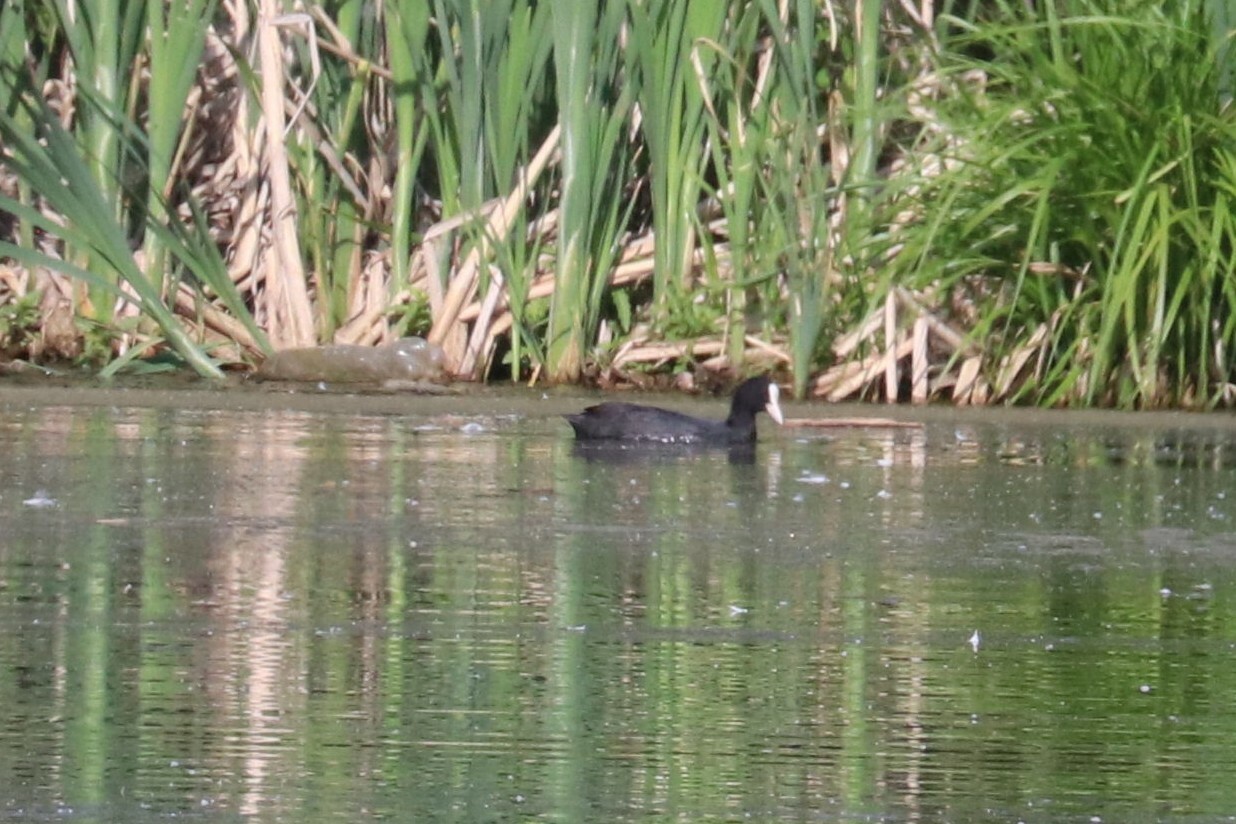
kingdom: Animalia
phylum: Chordata
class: Aves
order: Gruiformes
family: Rallidae
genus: Fulica
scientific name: Fulica atra
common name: Eurasian coot
